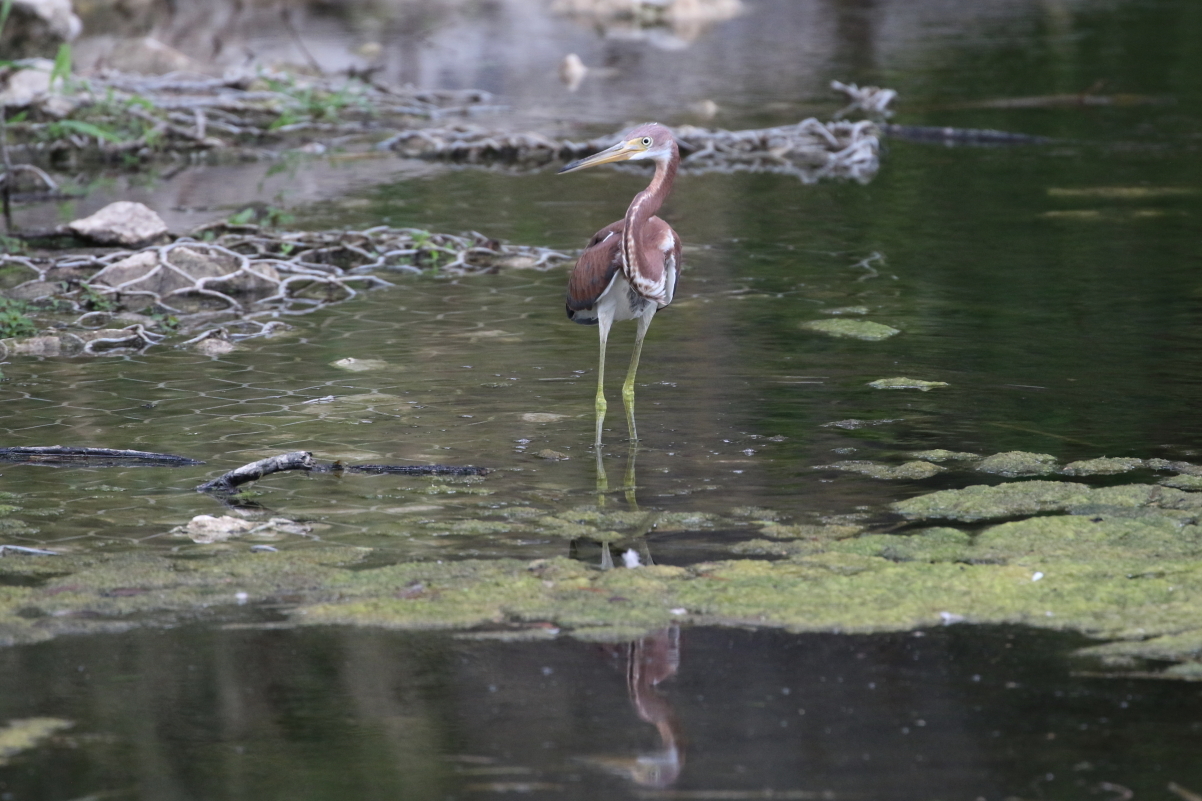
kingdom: Animalia
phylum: Chordata
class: Aves
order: Pelecaniformes
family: Ardeidae
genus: Egretta
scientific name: Egretta tricolor
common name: Tricolored heron
